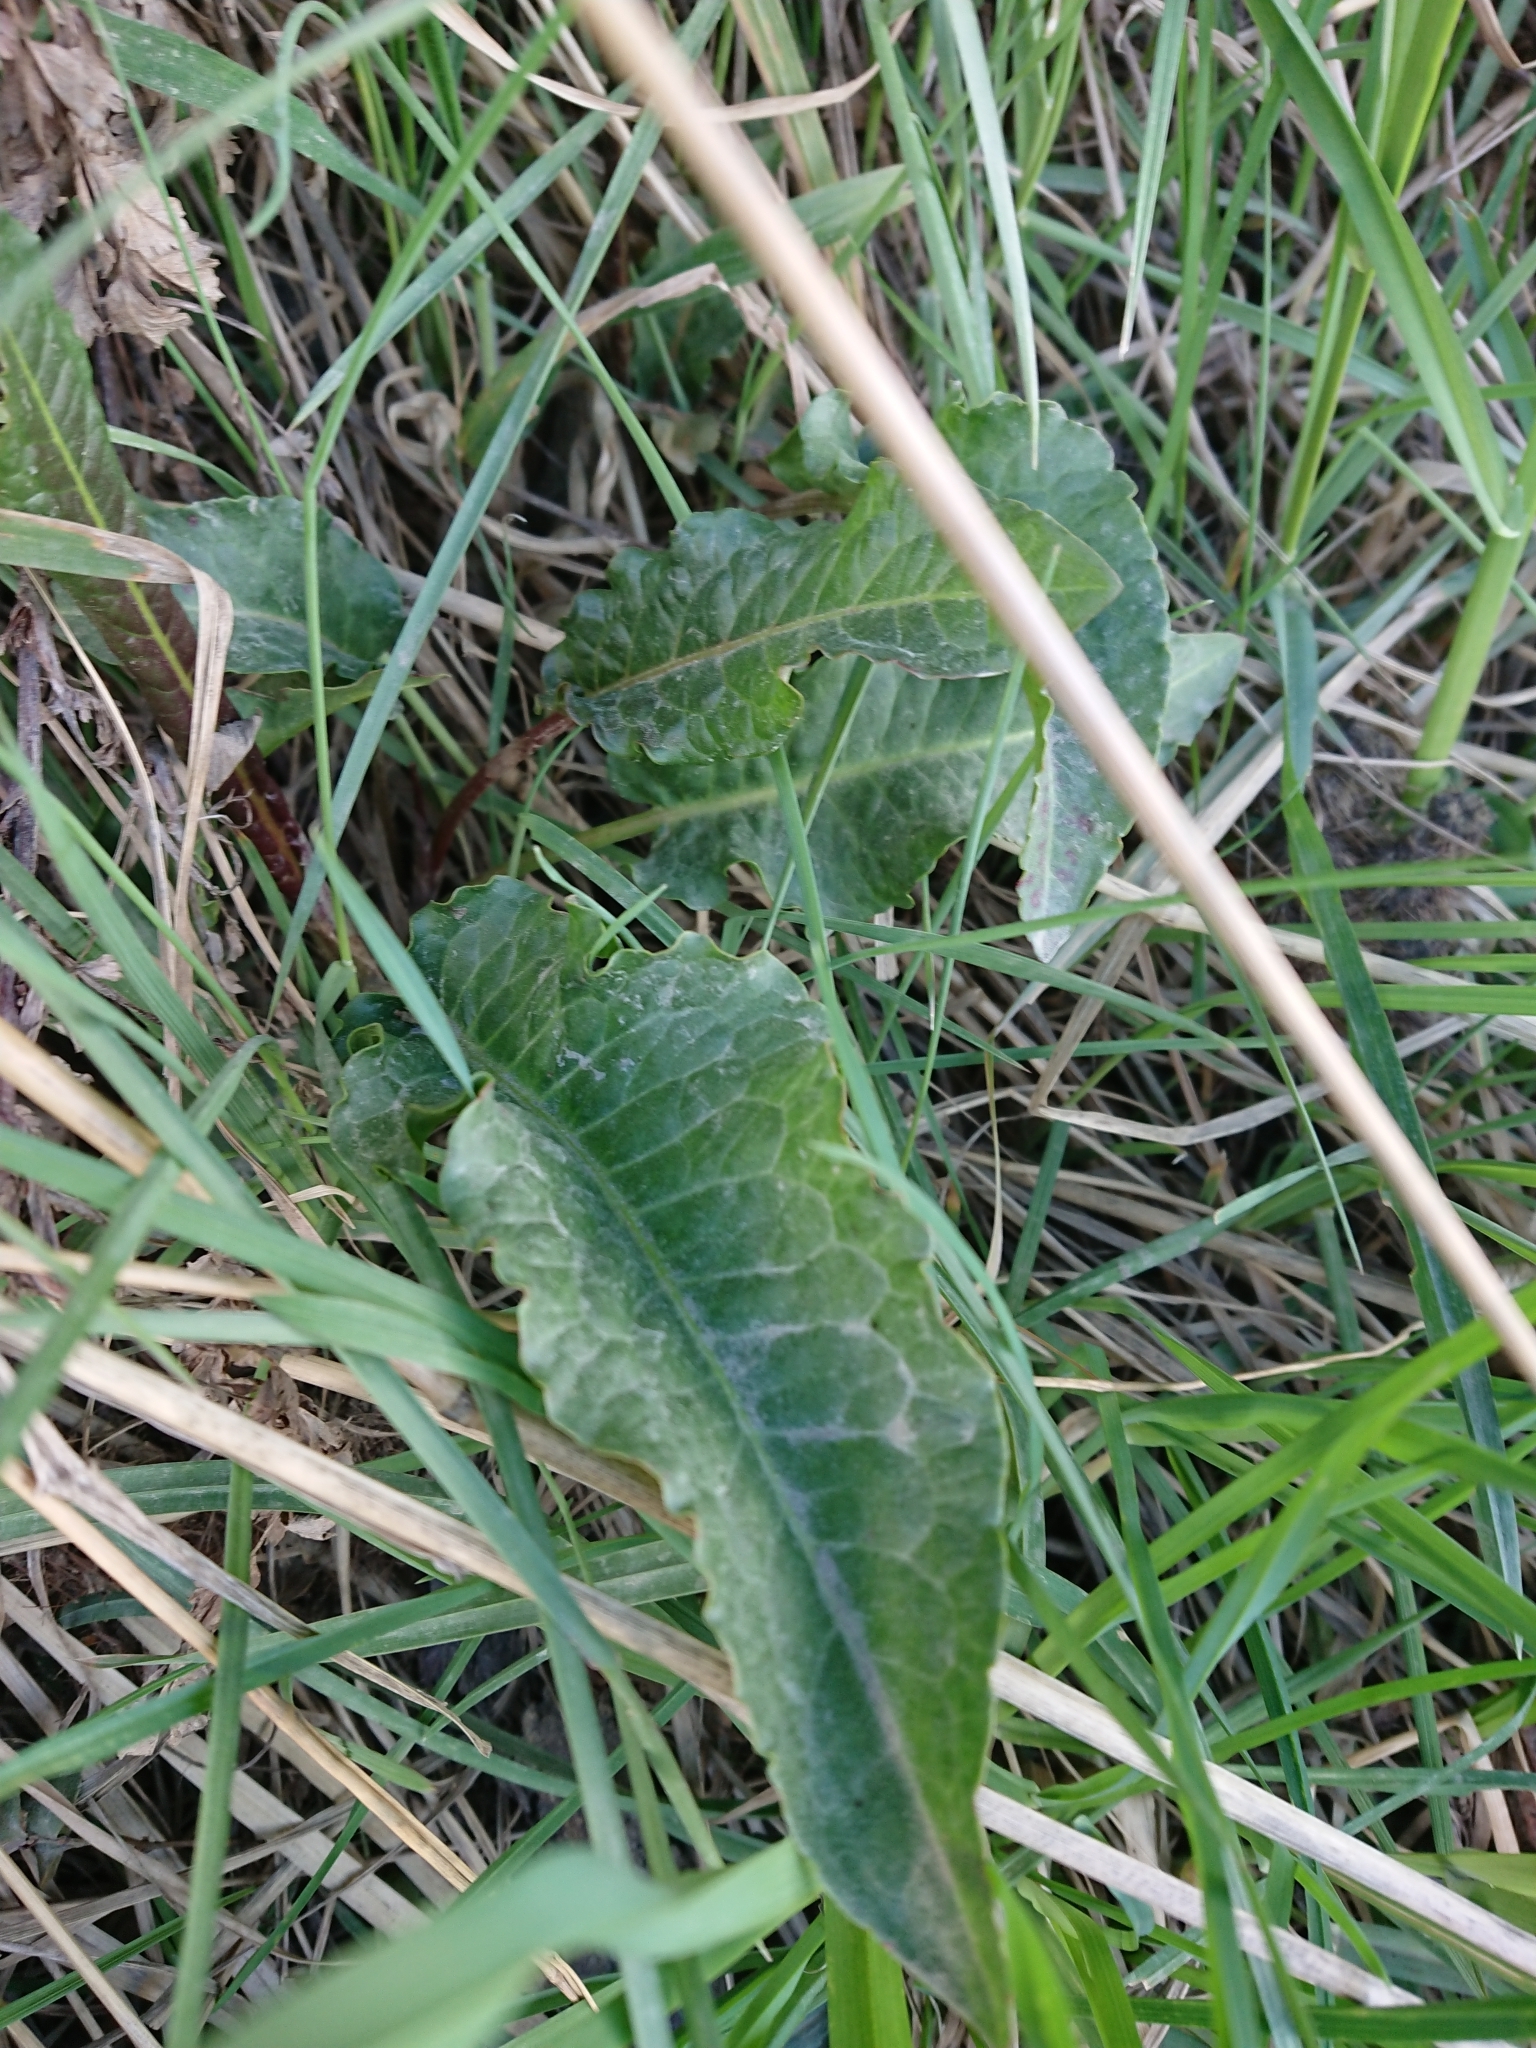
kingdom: Plantae
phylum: Tracheophyta
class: Magnoliopsida
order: Caryophyllales
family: Polygonaceae
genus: Rumex
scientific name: Rumex crispus
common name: Curled dock
